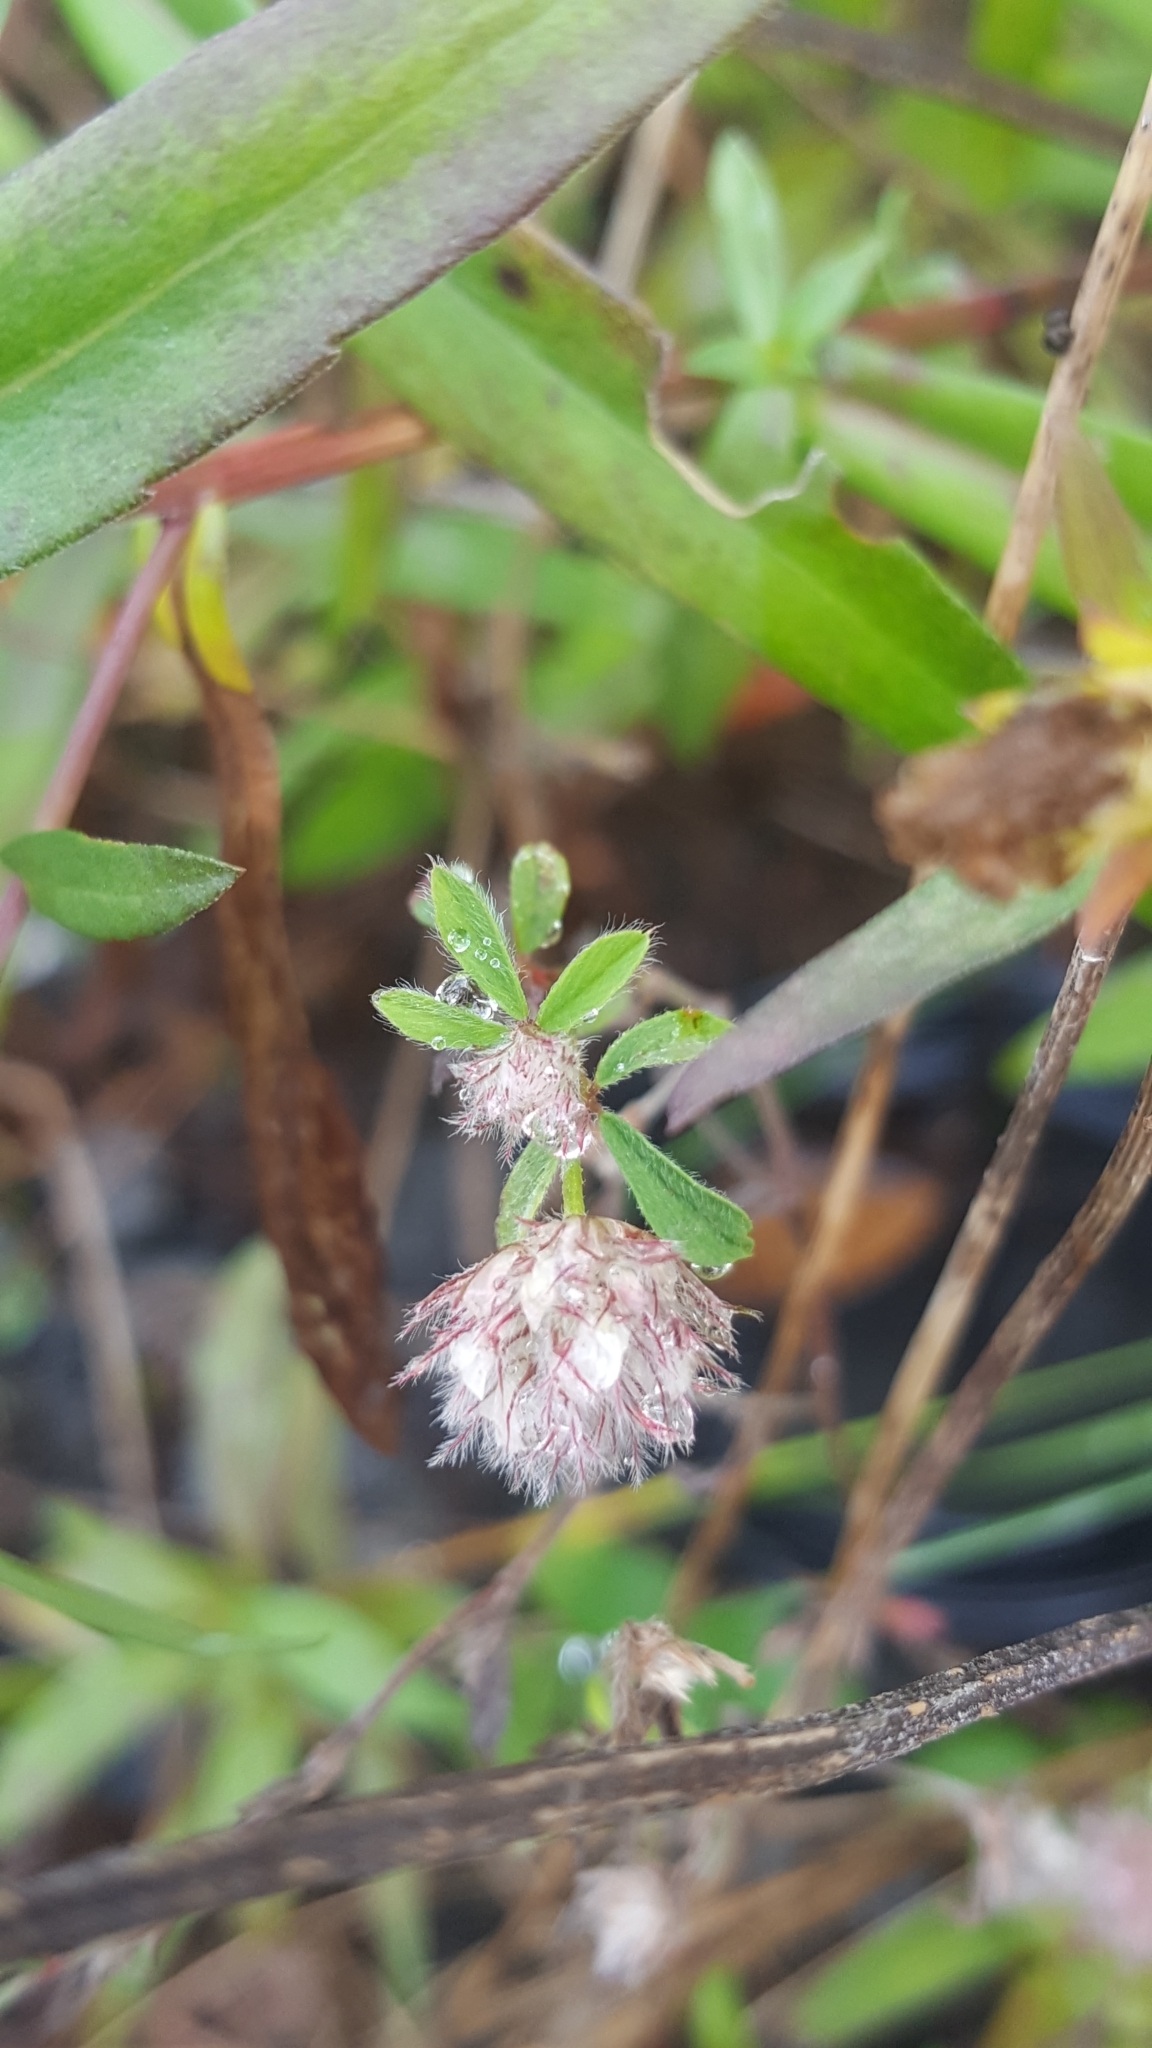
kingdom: Plantae
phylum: Tracheophyta
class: Magnoliopsida
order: Fabales
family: Fabaceae
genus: Trifolium
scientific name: Trifolium arvense
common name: Hare's-foot clover
